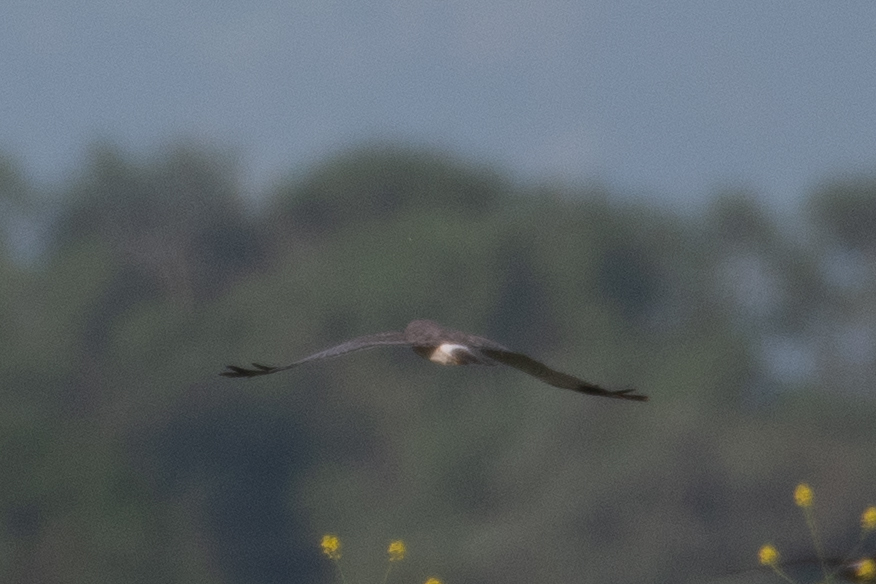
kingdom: Animalia
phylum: Chordata
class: Aves
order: Accipitriformes
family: Accipitridae
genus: Circus
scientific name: Circus cyaneus
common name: Hen harrier
